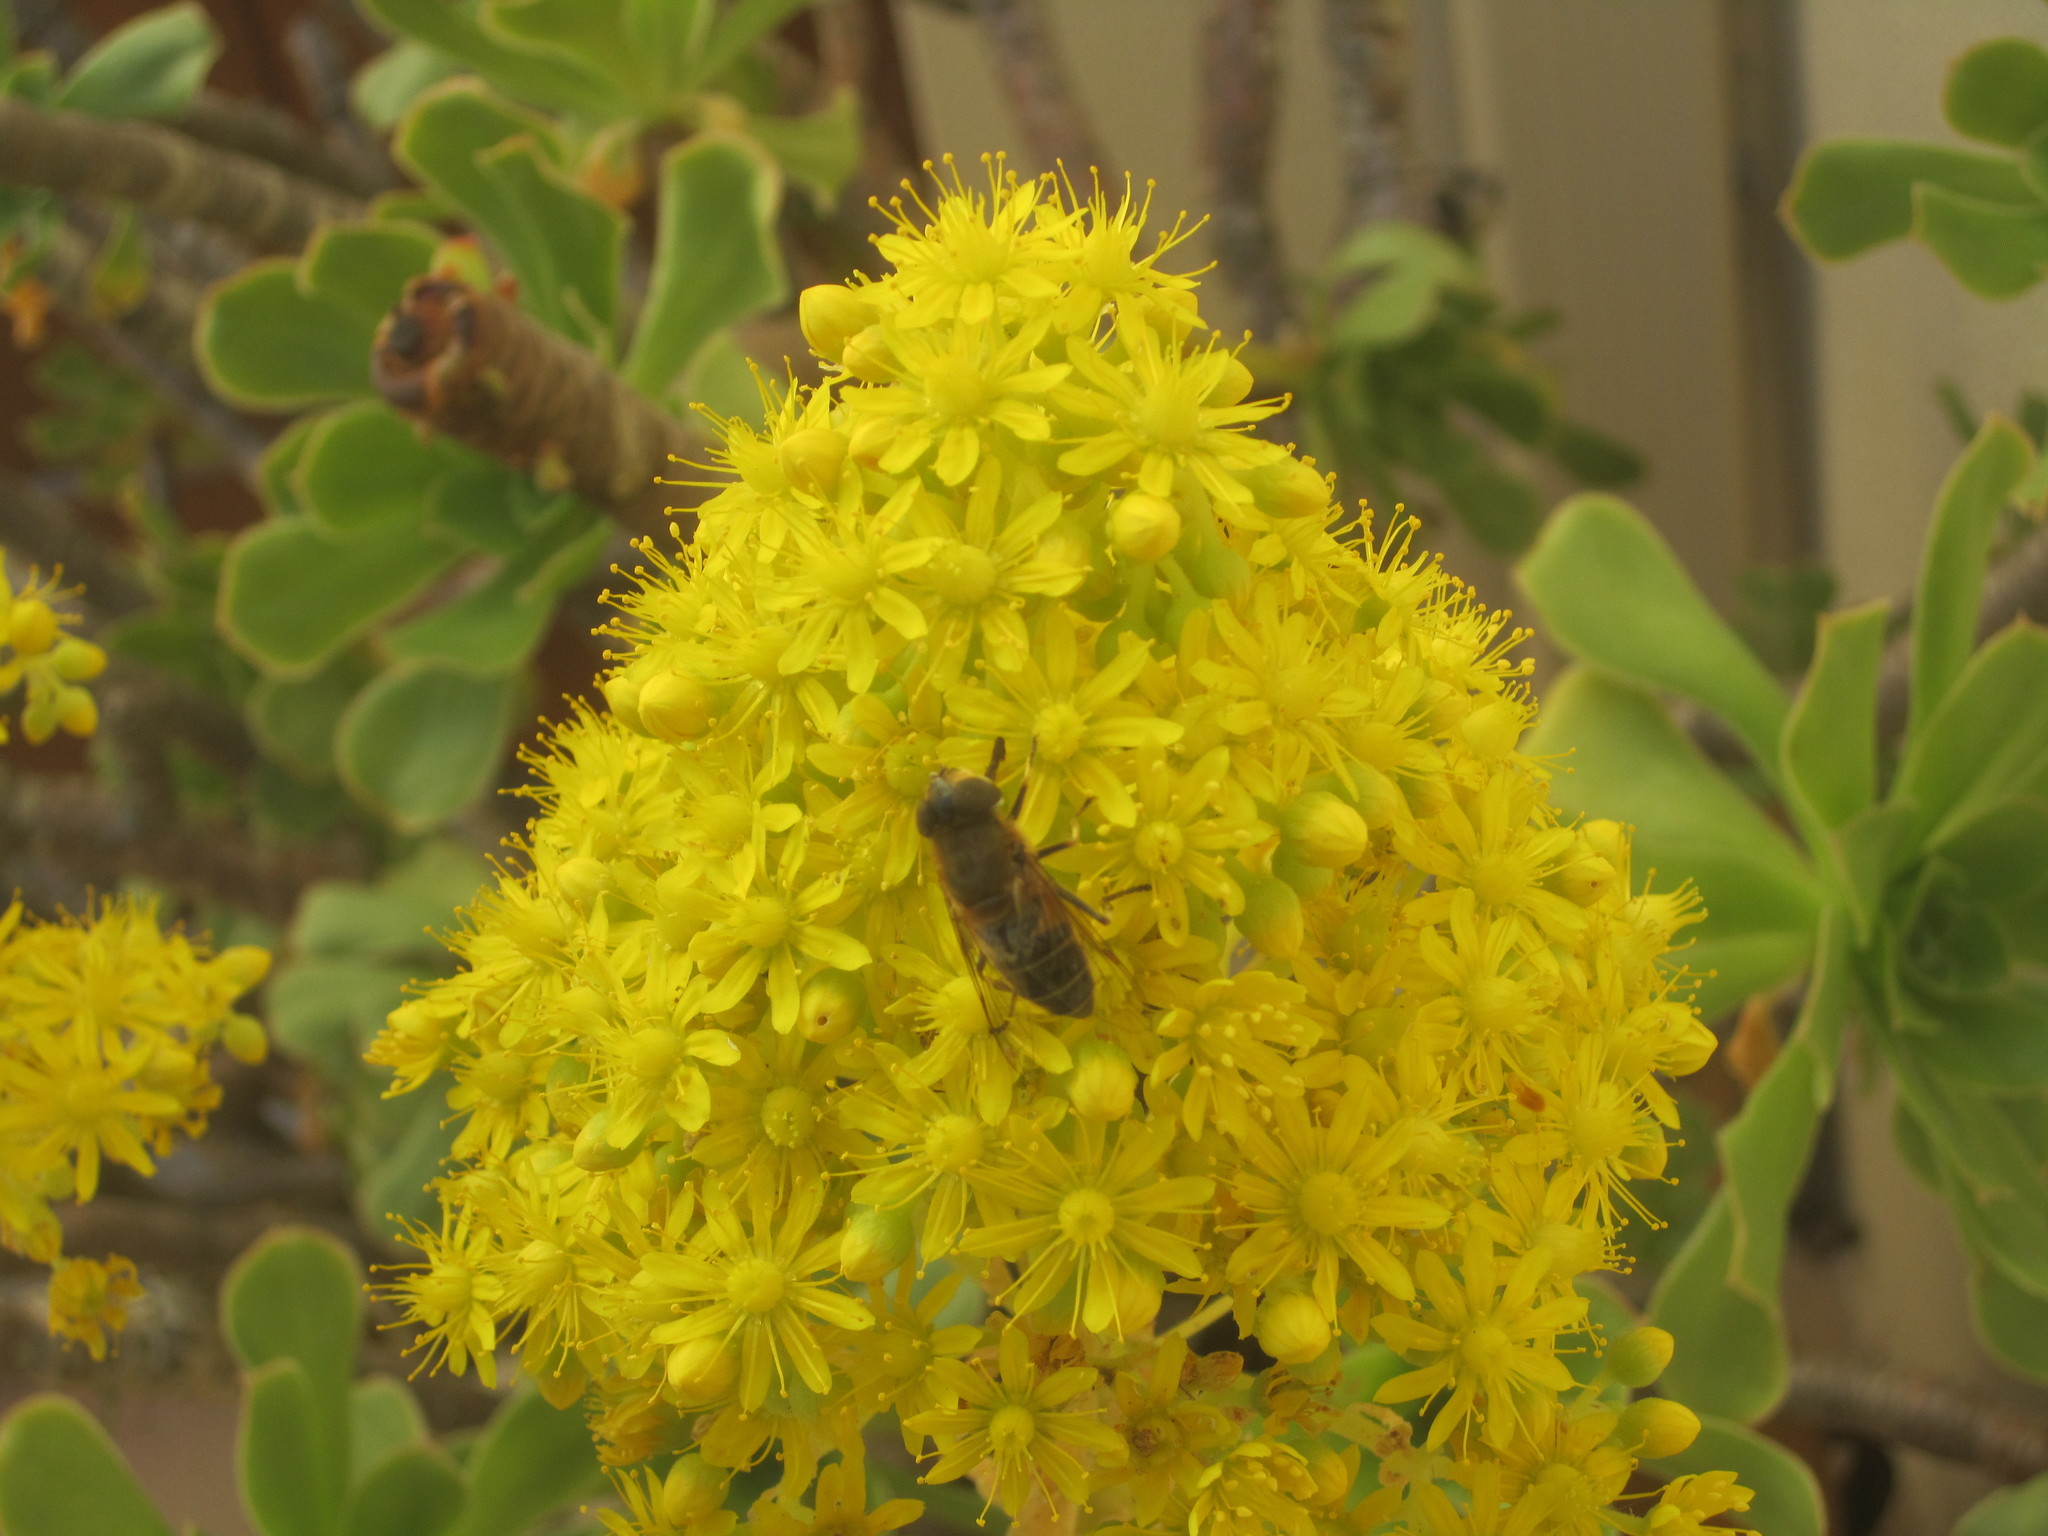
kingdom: Animalia
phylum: Arthropoda
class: Insecta
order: Diptera
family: Syrphidae
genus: Eristalis
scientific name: Eristalis pertinax
